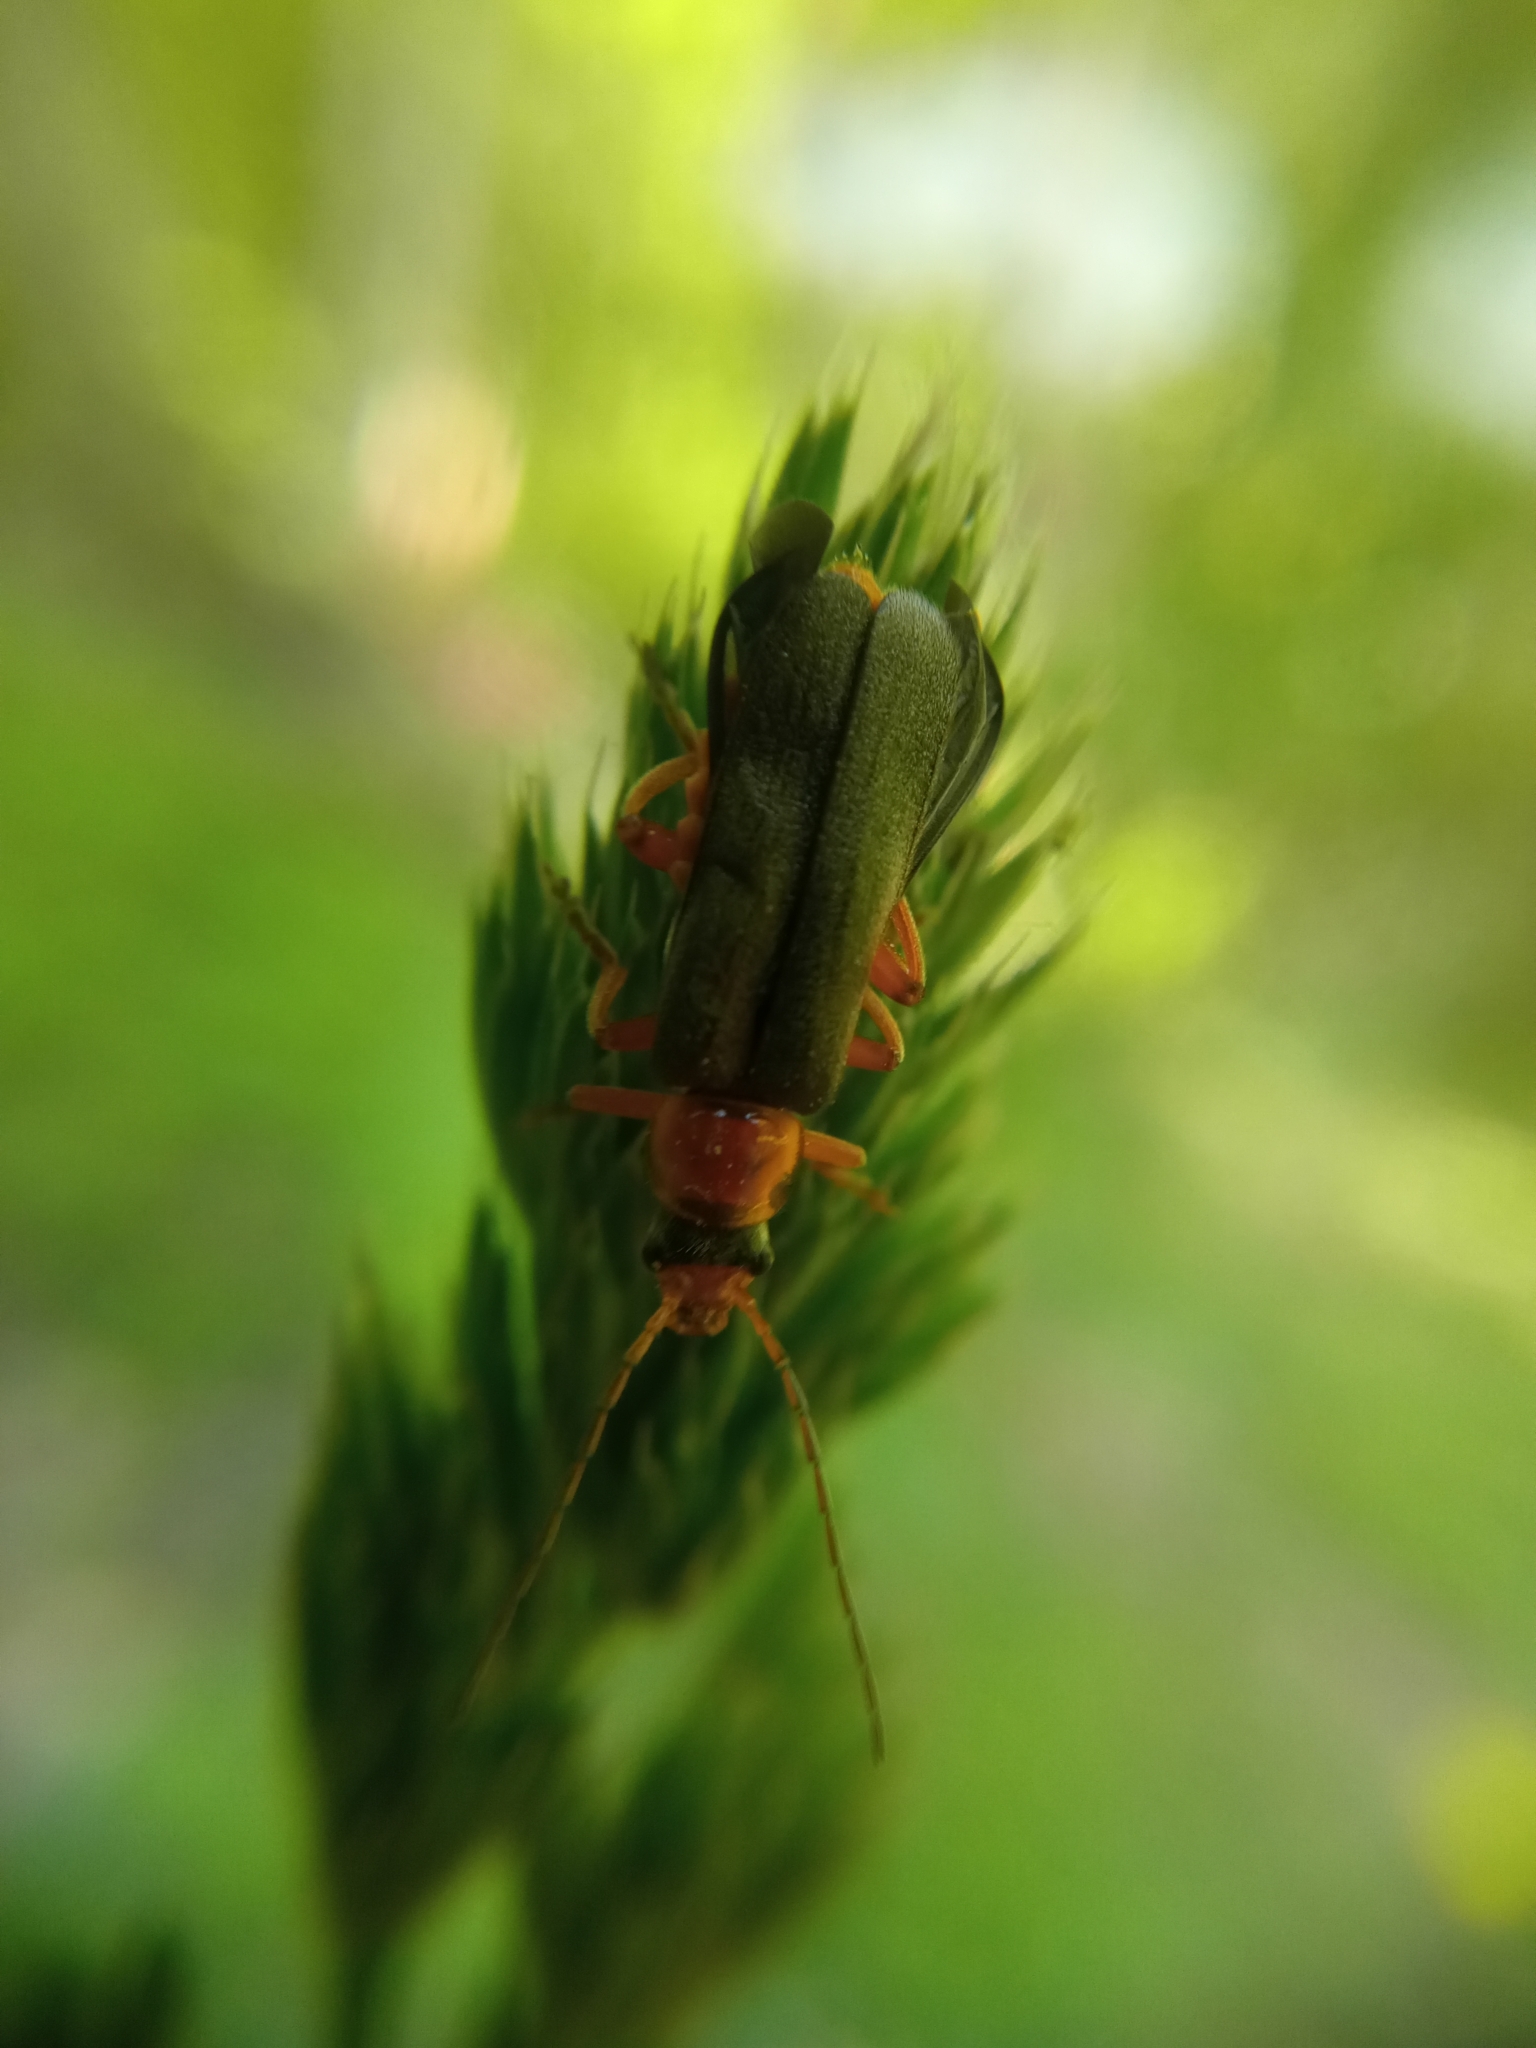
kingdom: Animalia
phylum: Arthropoda
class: Insecta
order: Coleoptera
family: Cantharidae
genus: Cantharis
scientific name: Cantharis pellucida
